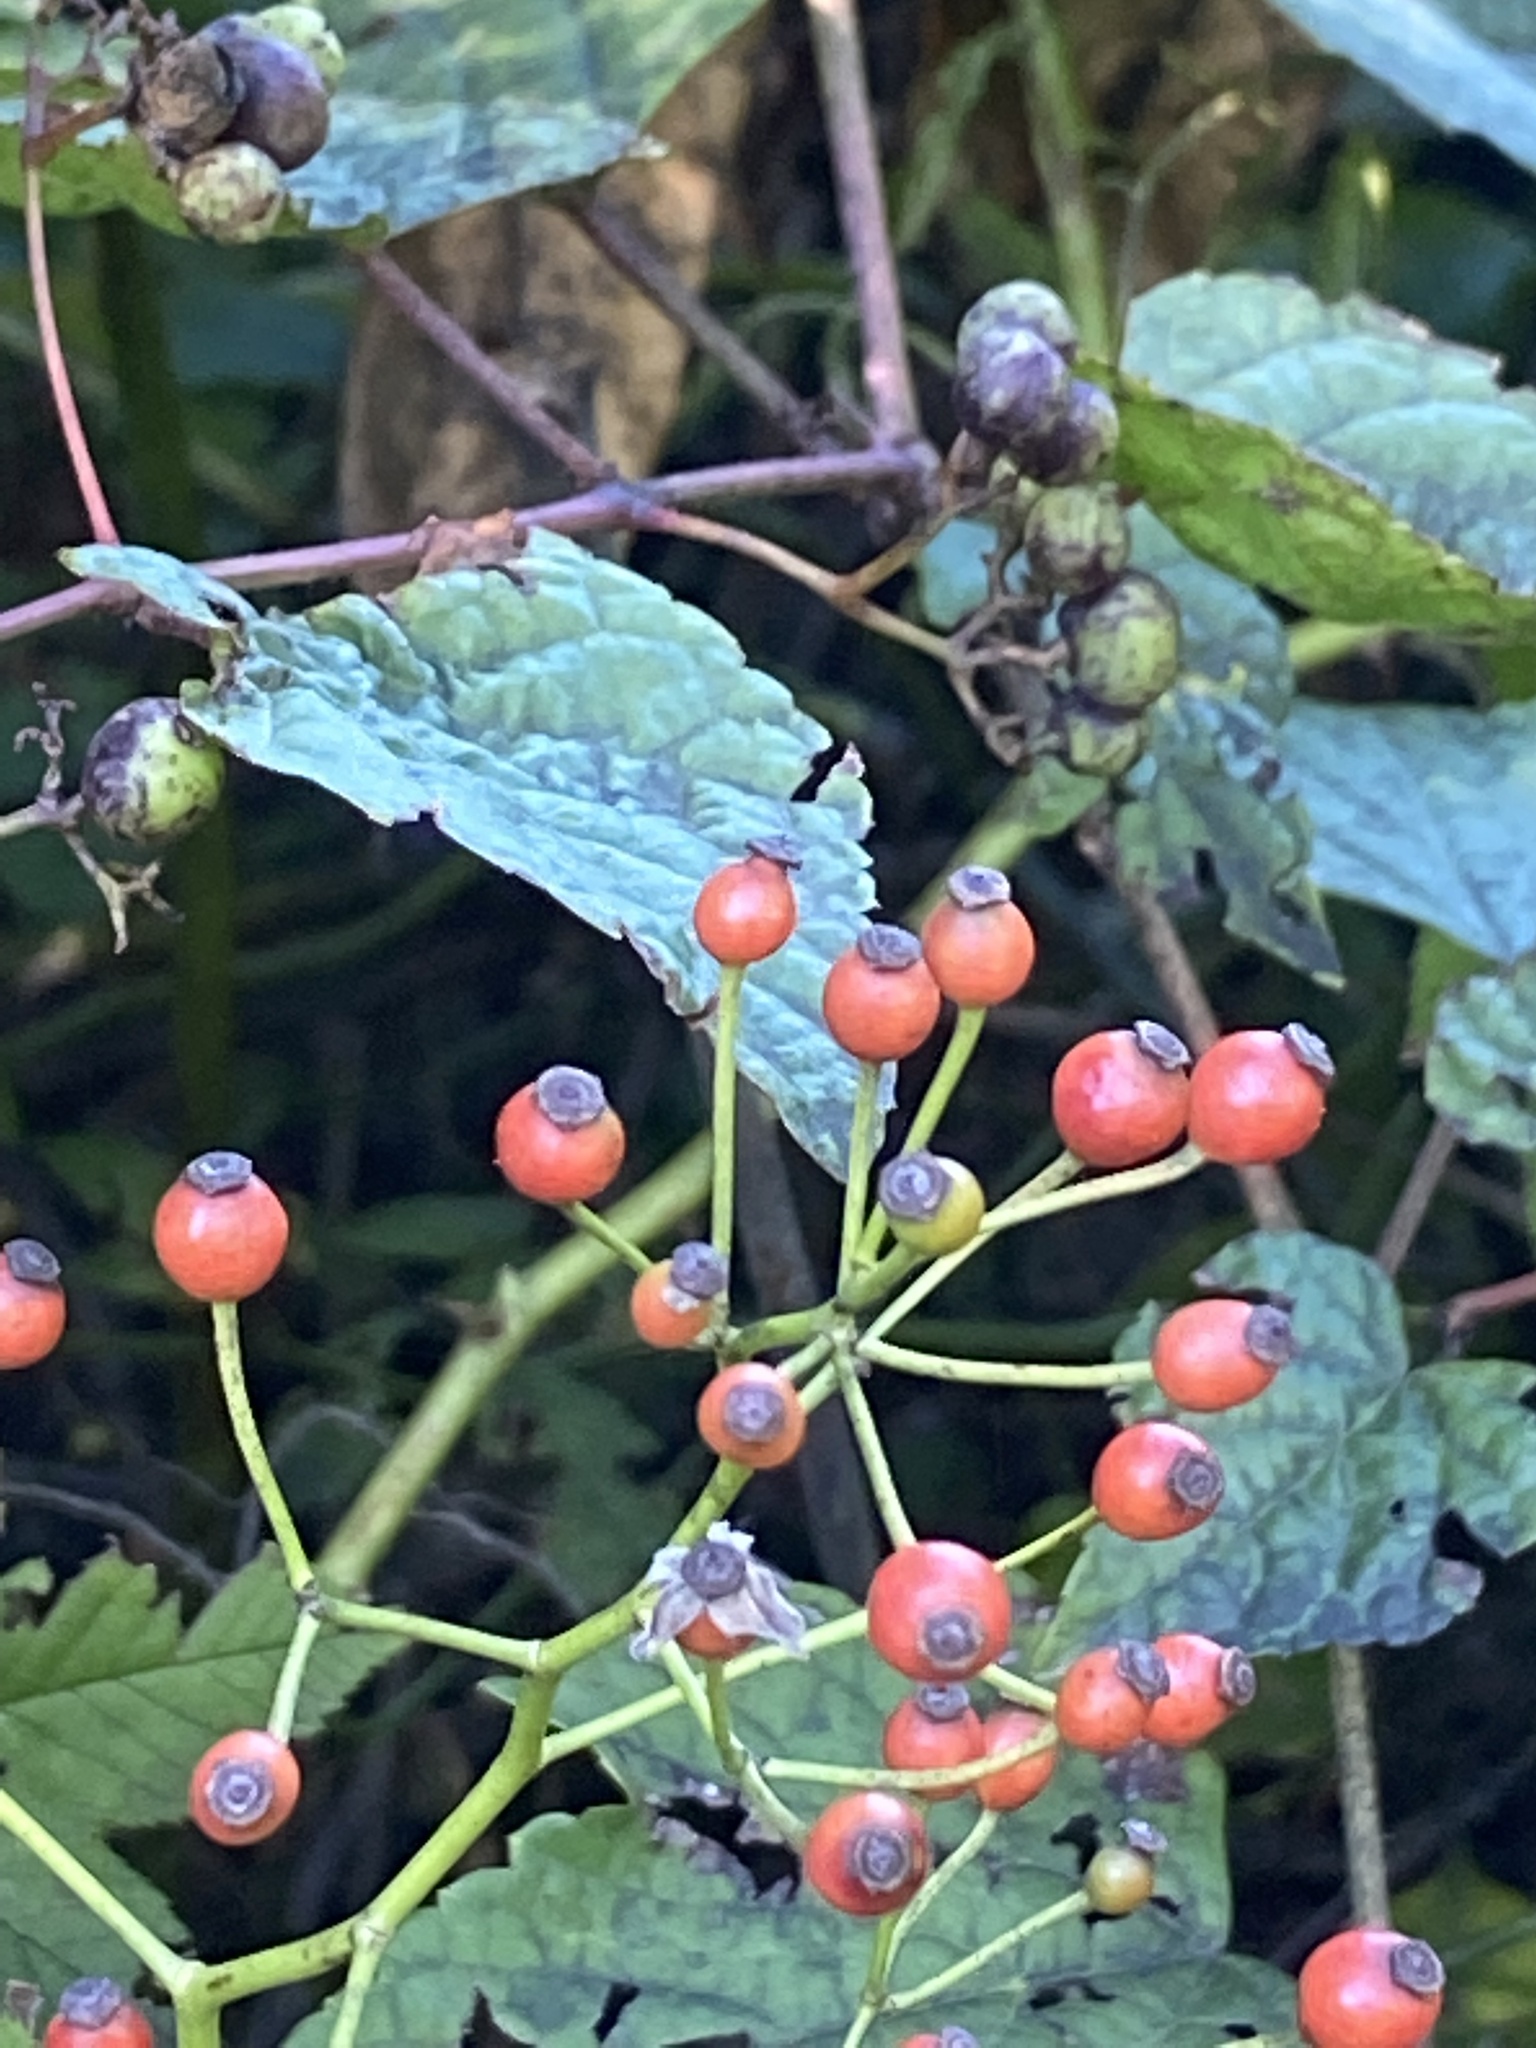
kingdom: Plantae
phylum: Tracheophyta
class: Magnoliopsida
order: Rosales
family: Rosaceae
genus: Rosa
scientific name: Rosa multiflora
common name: Multiflora rose
